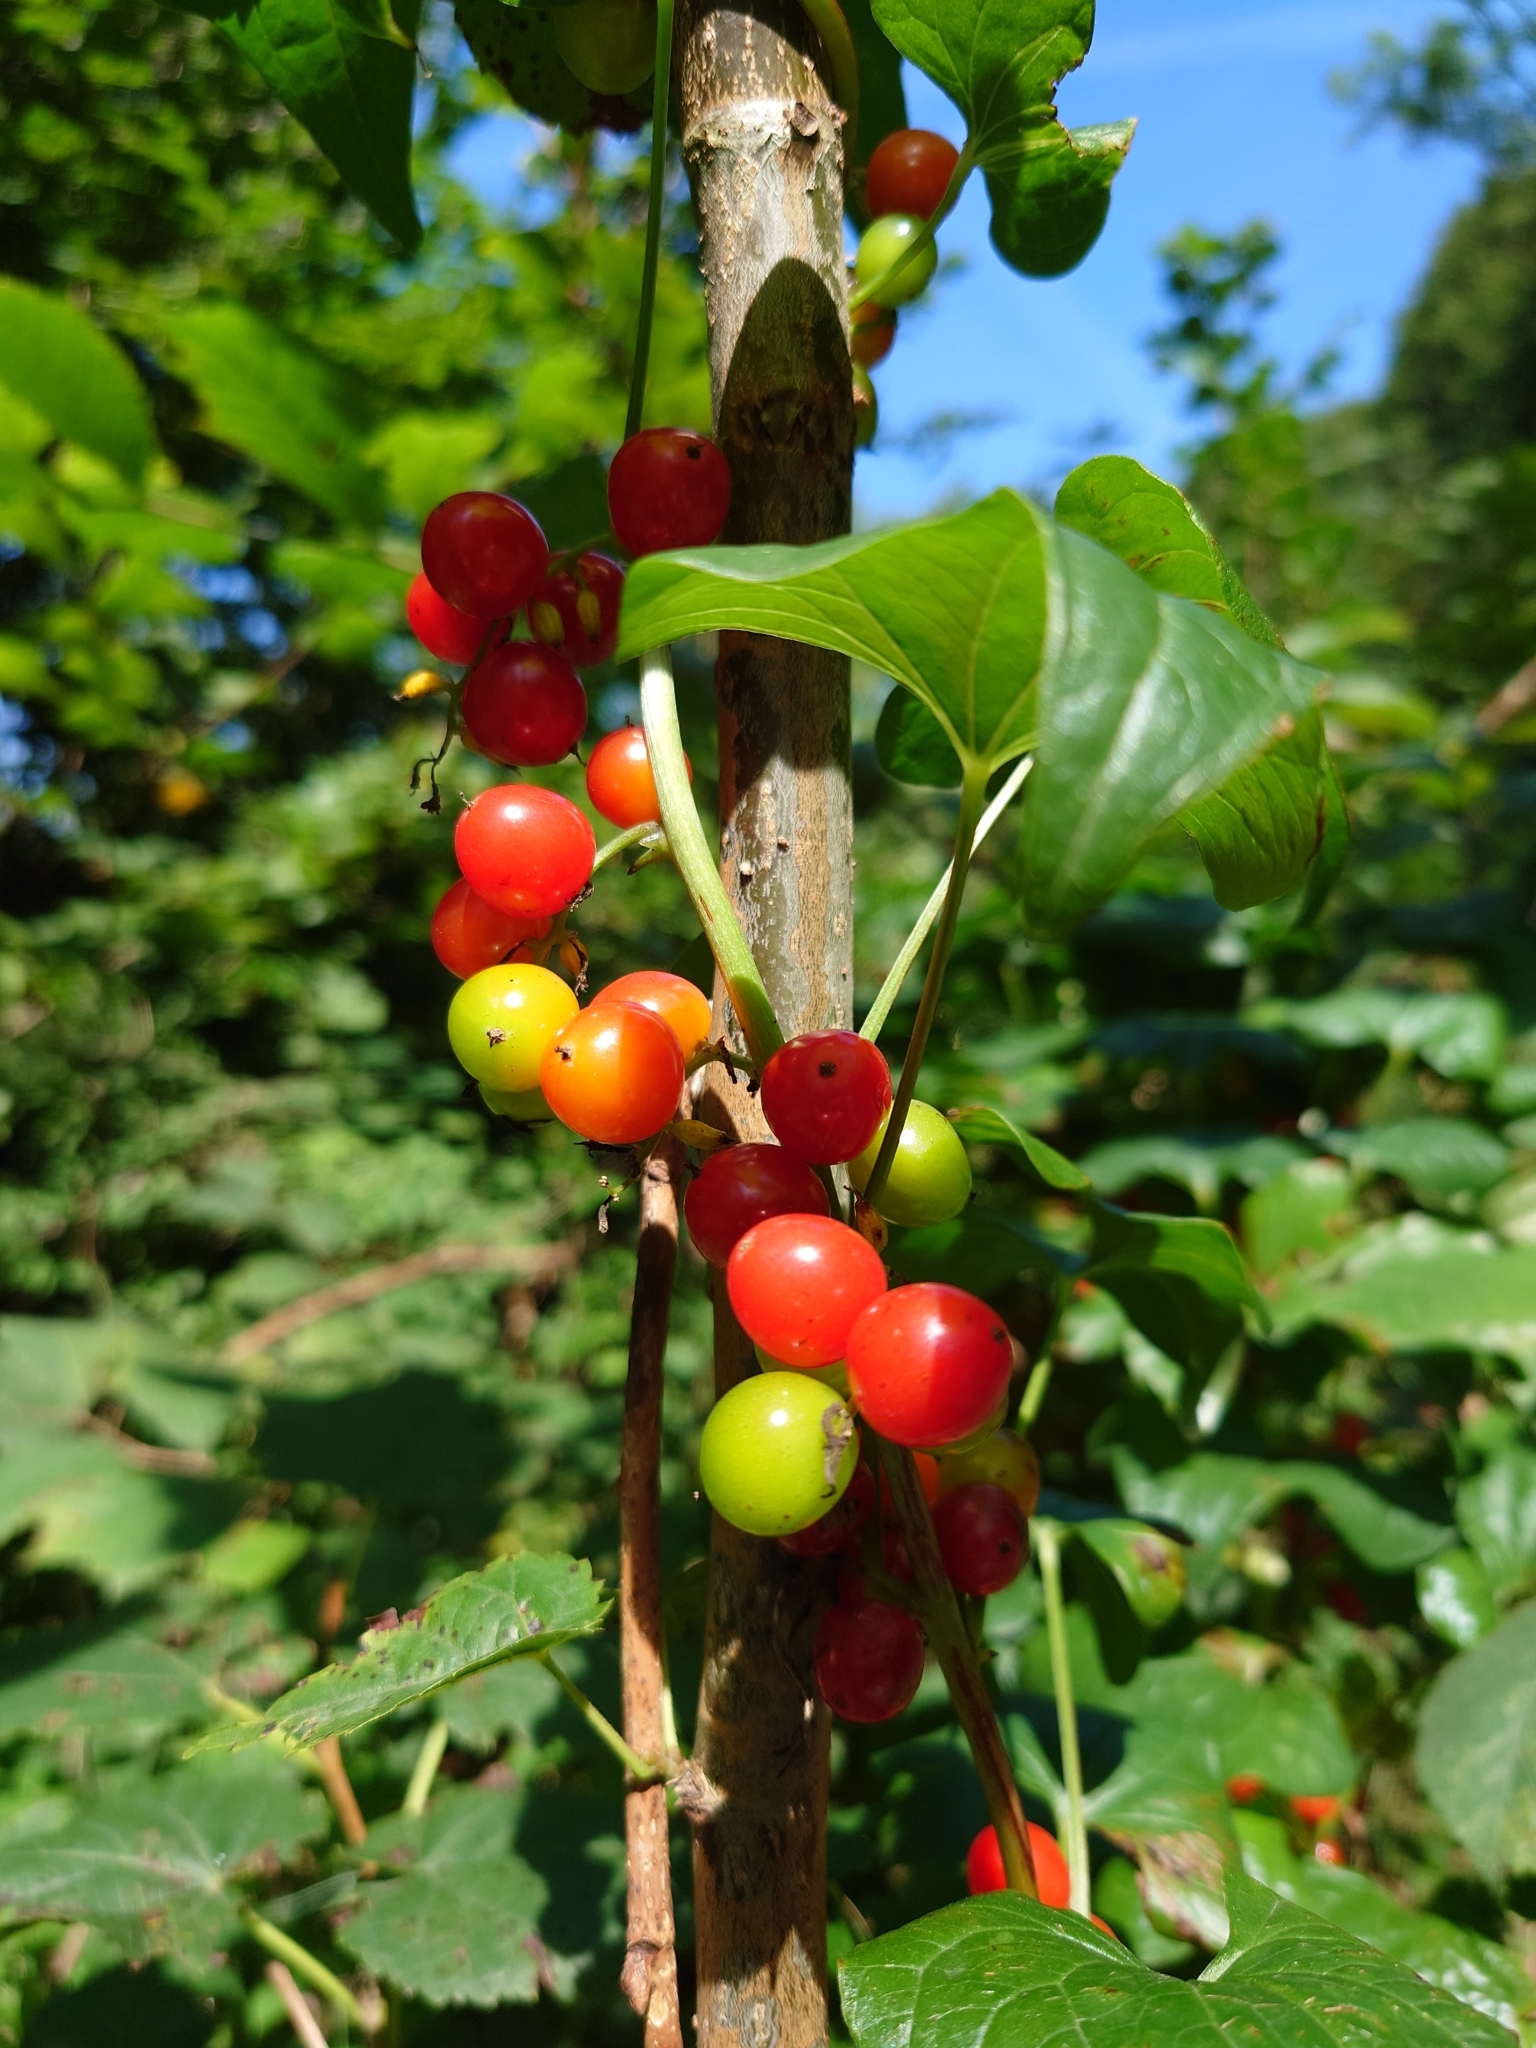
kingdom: Plantae
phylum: Tracheophyta
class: Liliopsida
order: Dioscoreales
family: Dioscoreaceae
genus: Dioscorea
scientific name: Dioscorea communis
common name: Black-bindweed
